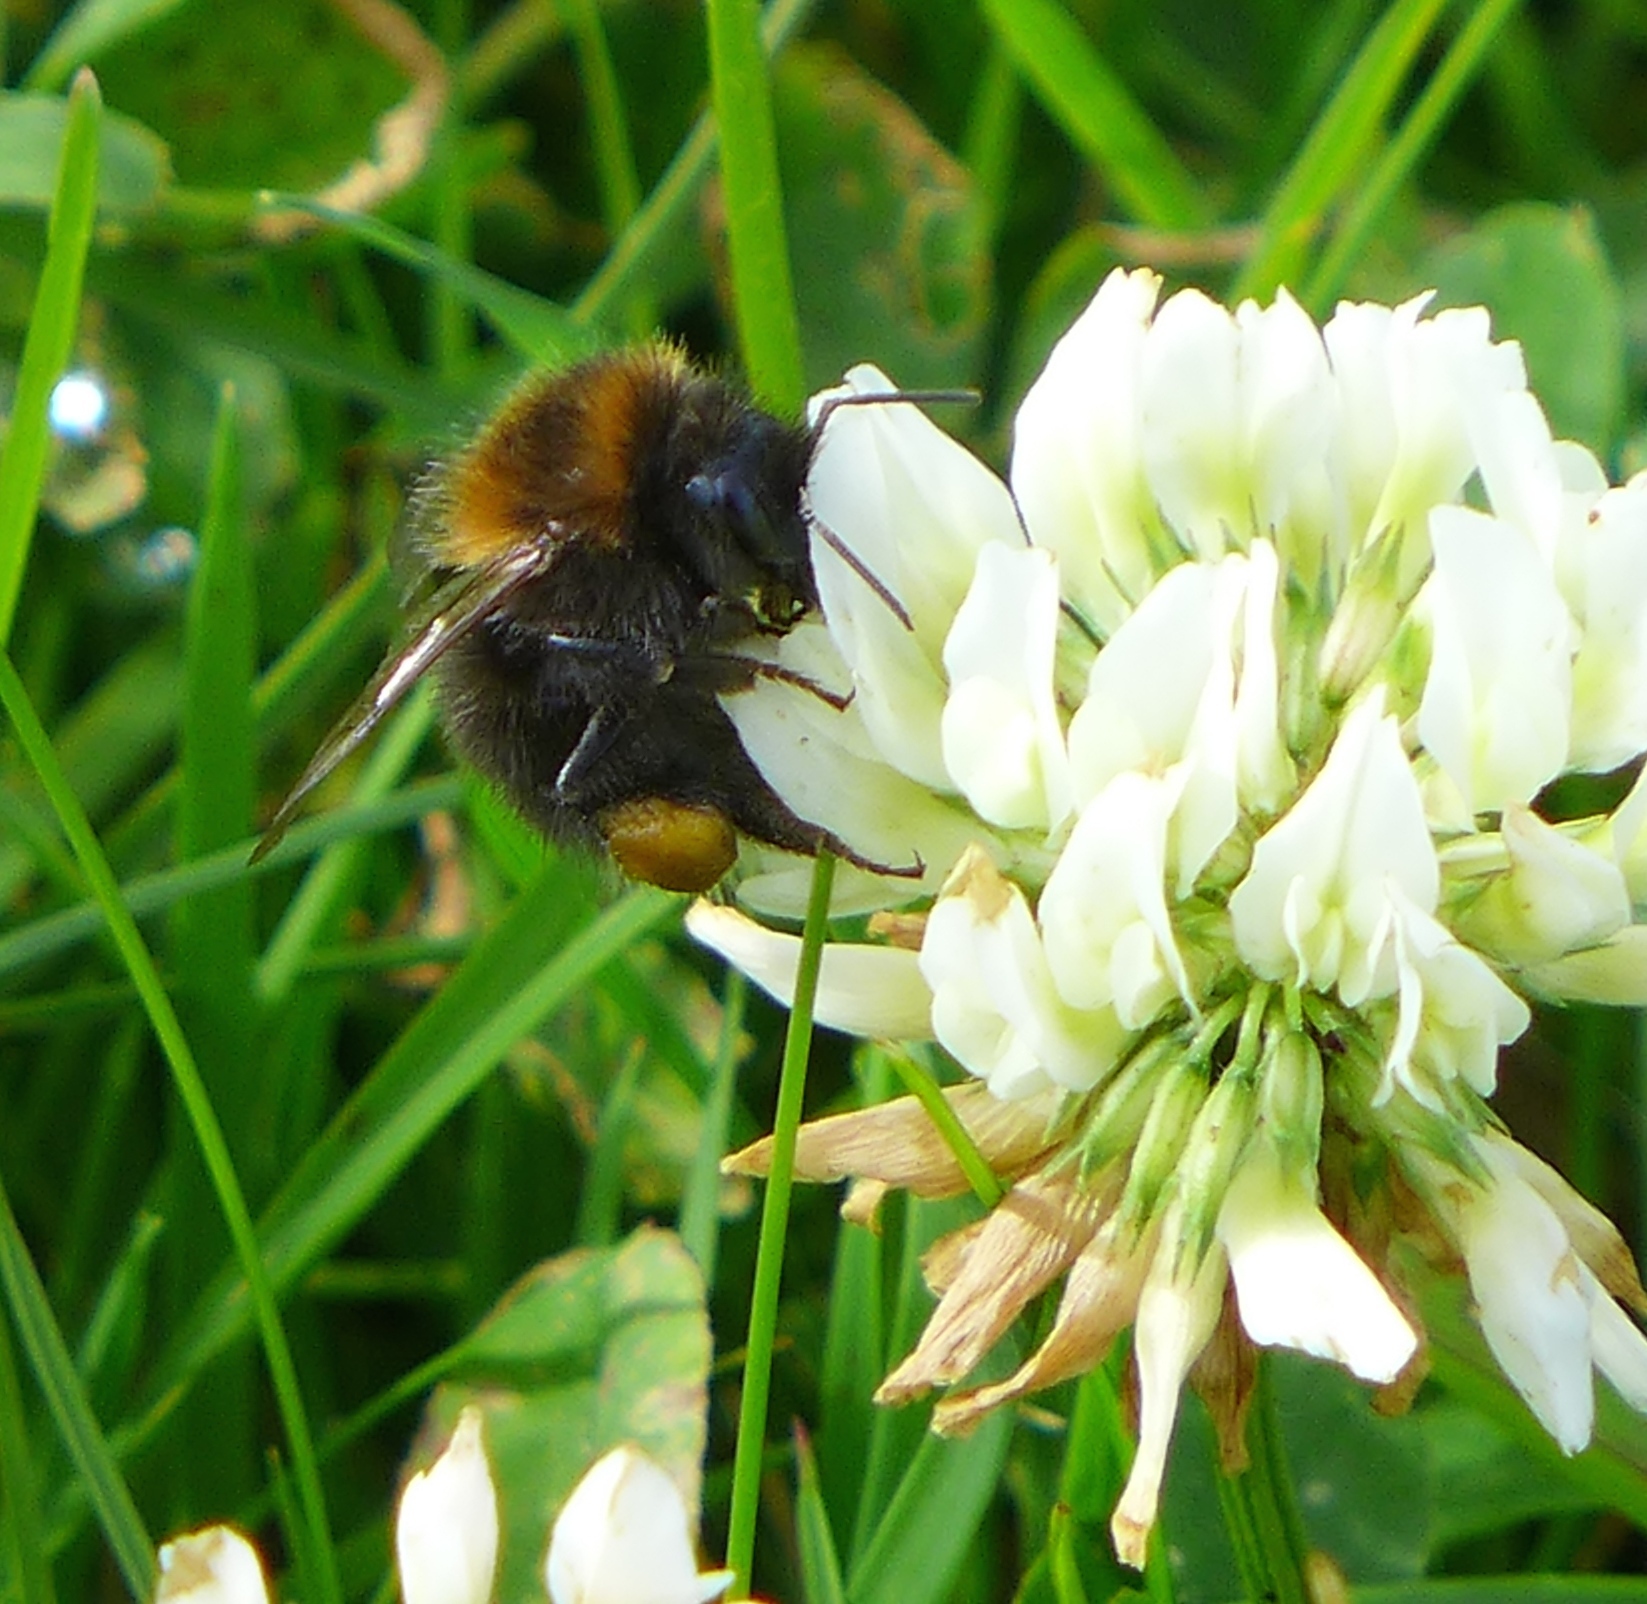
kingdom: Animalia
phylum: Arthropoda
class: Insecta
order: Hymenoptera
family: Apidae
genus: Bombus
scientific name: Bombus hypnorum
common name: New garden bumblebee
